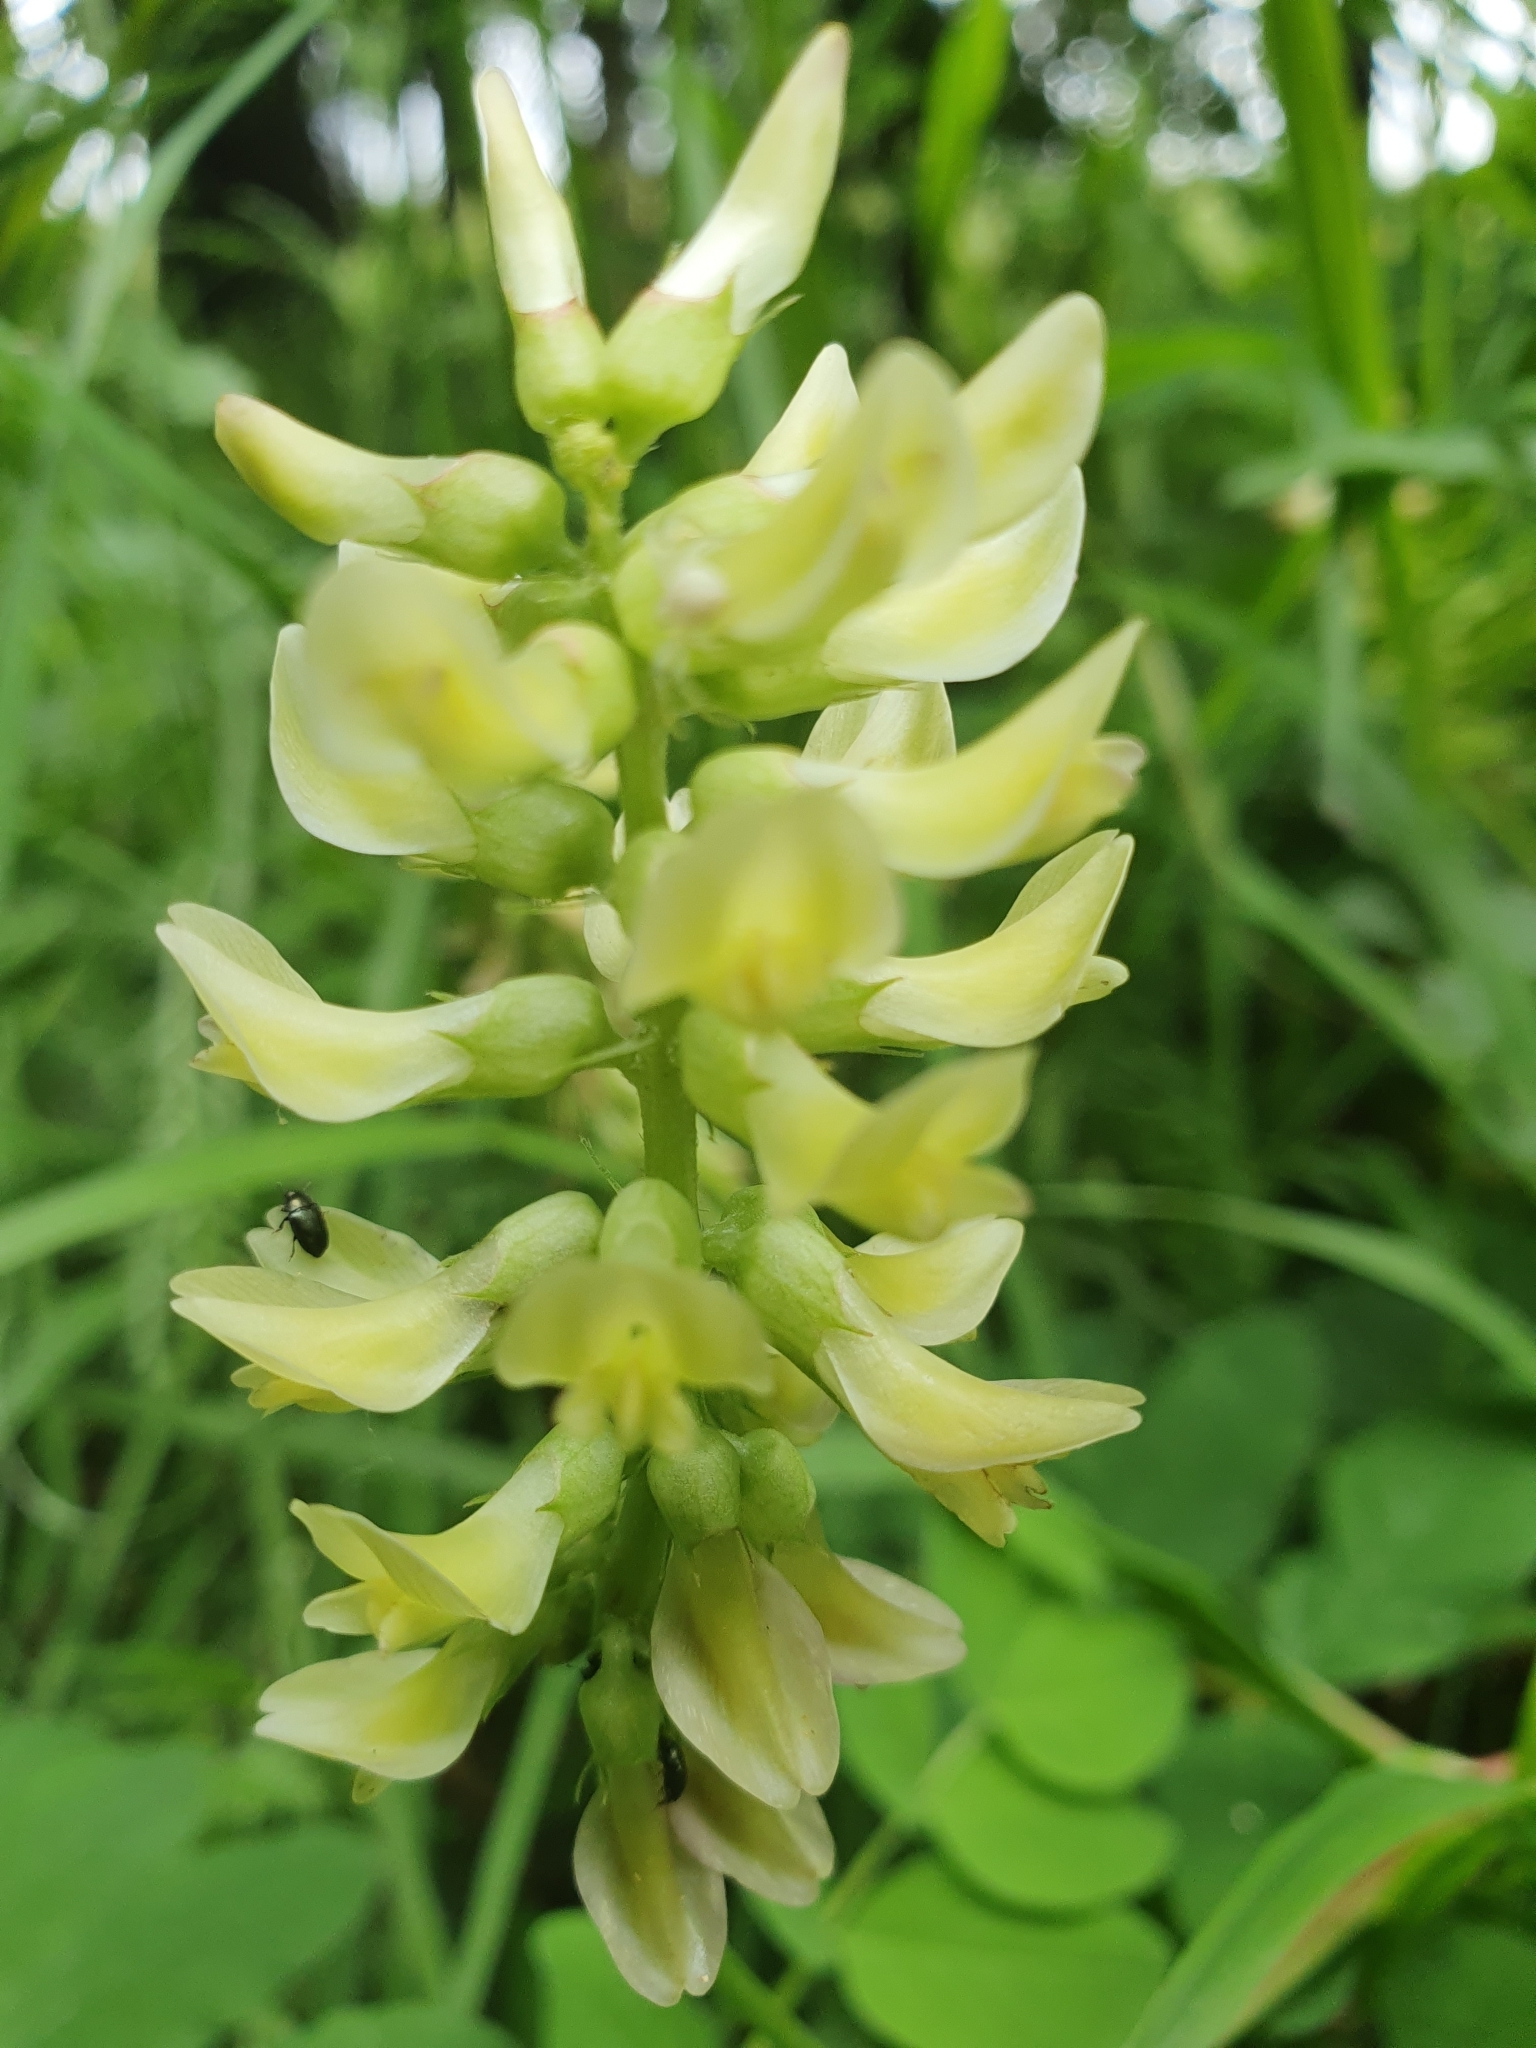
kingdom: Plantae
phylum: Tracheophyta
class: Magnoliopsida
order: Fabales
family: Fabaceae
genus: Astragalus
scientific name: Astragalus glycyphyllos
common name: Wild liquorice
